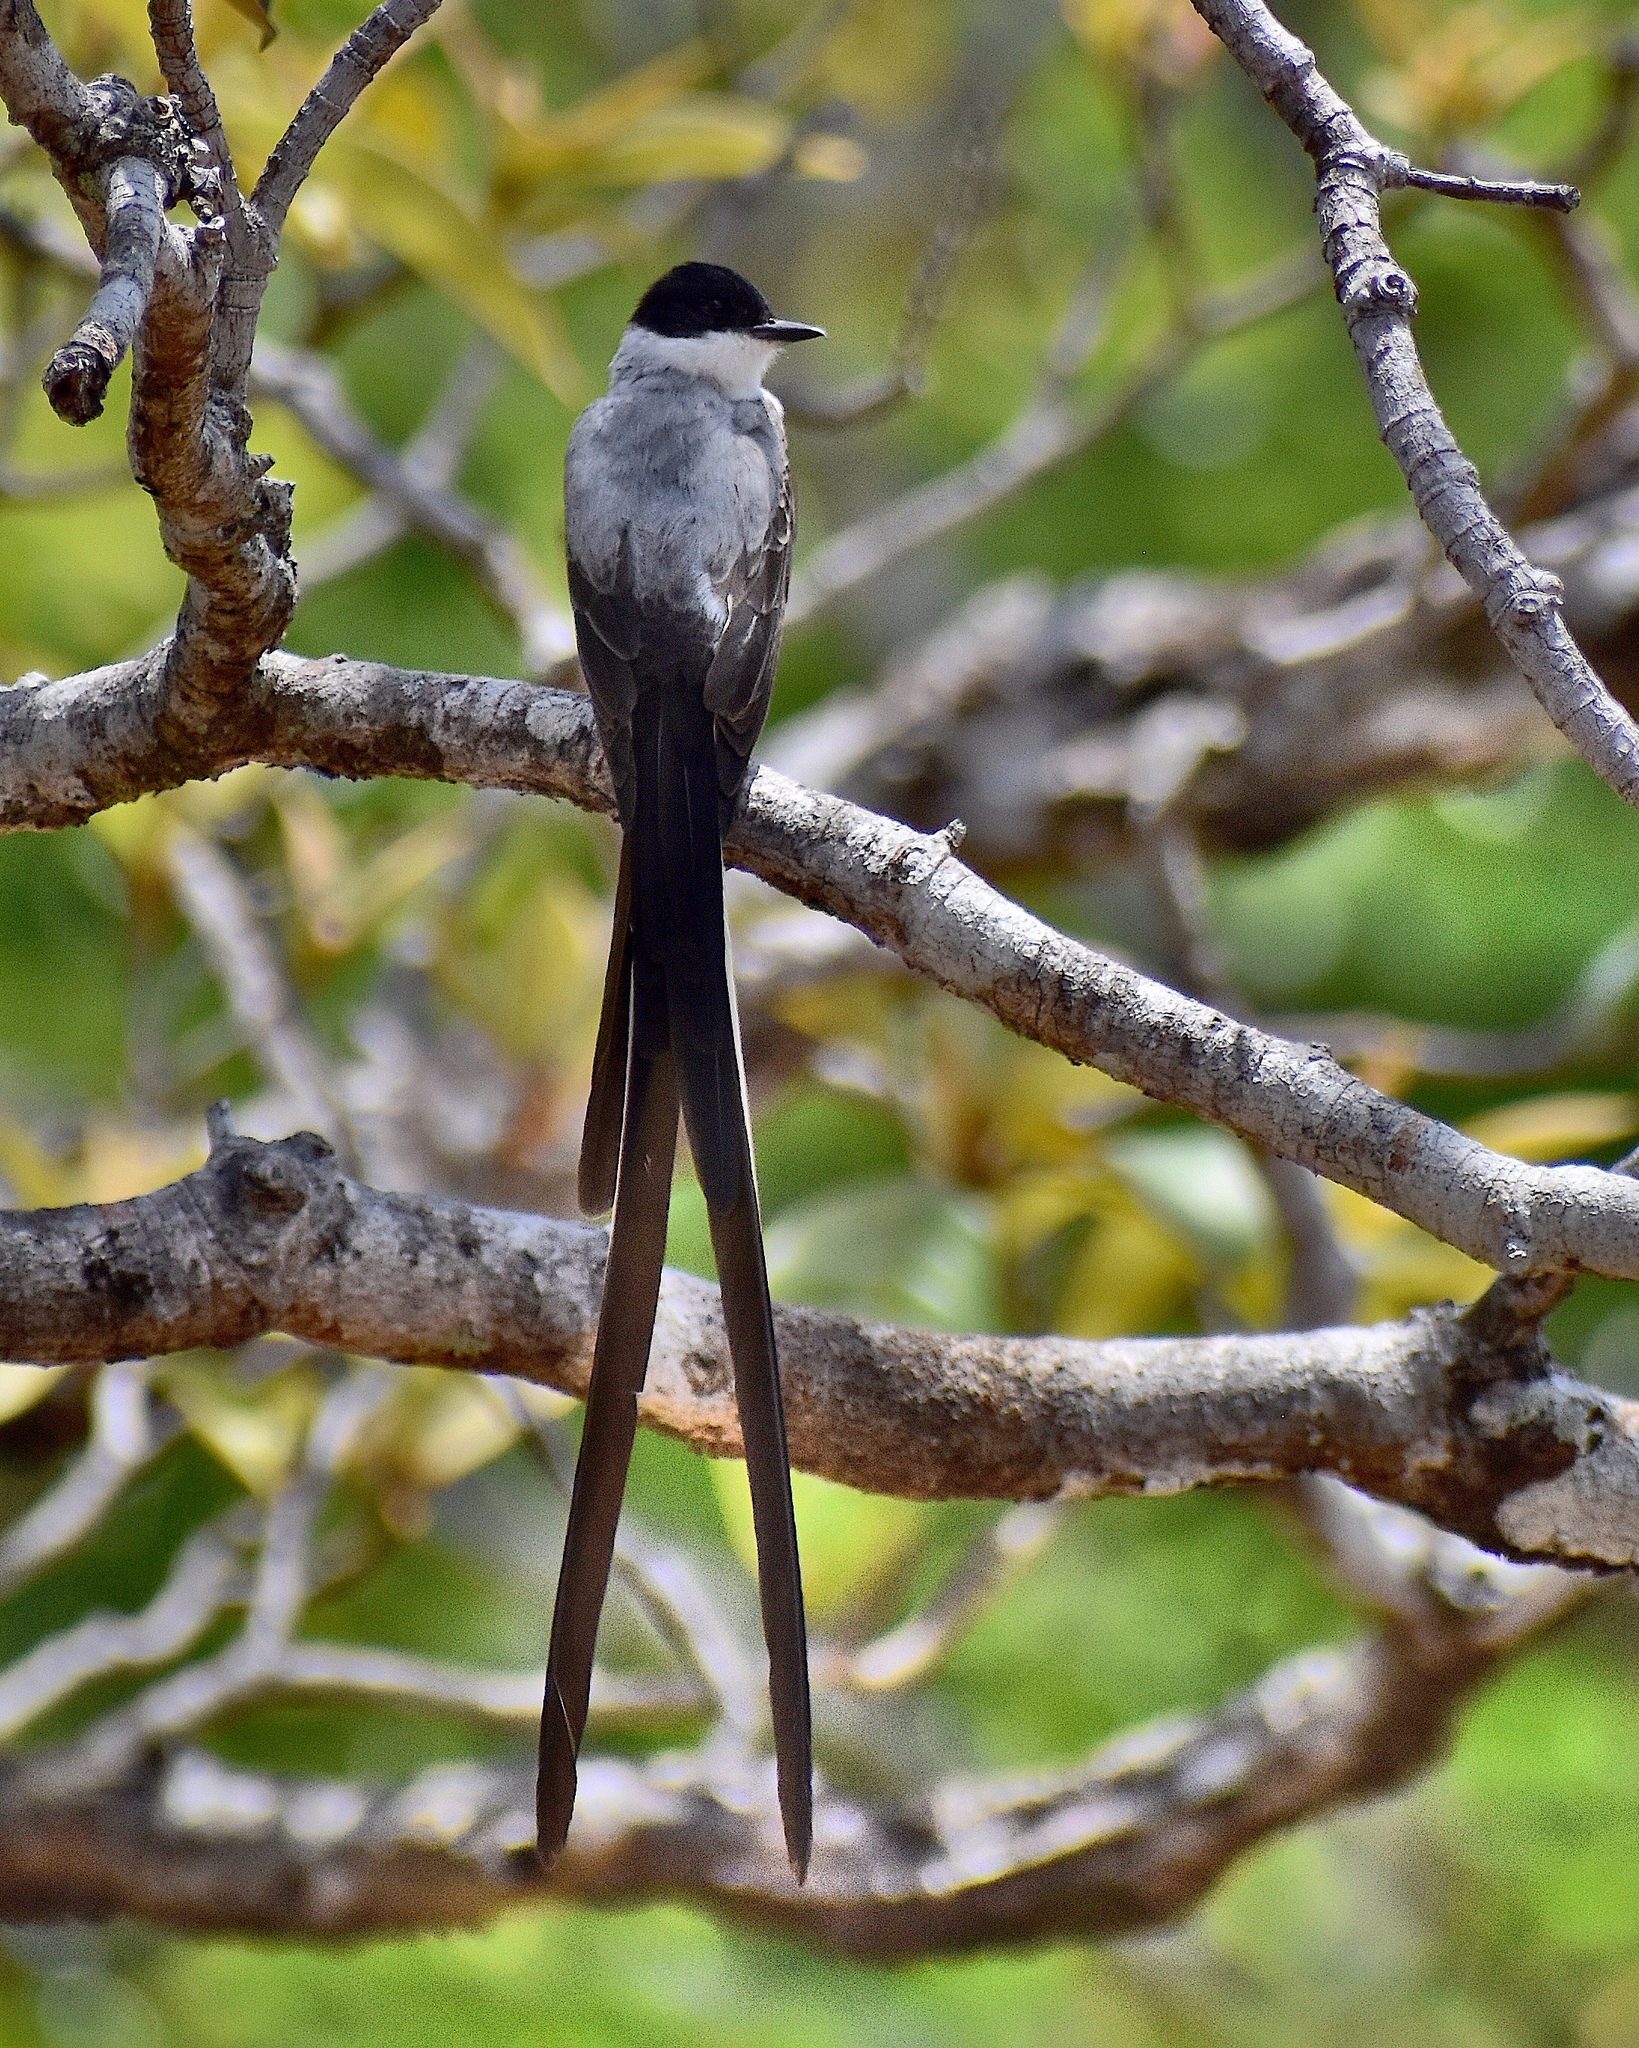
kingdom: Animalia
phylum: Chordata
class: Aves
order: Passeriformes
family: Tyrannidae
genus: Tyrannus
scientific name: Tyrannus savana
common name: Fork-tailed flycatcher
